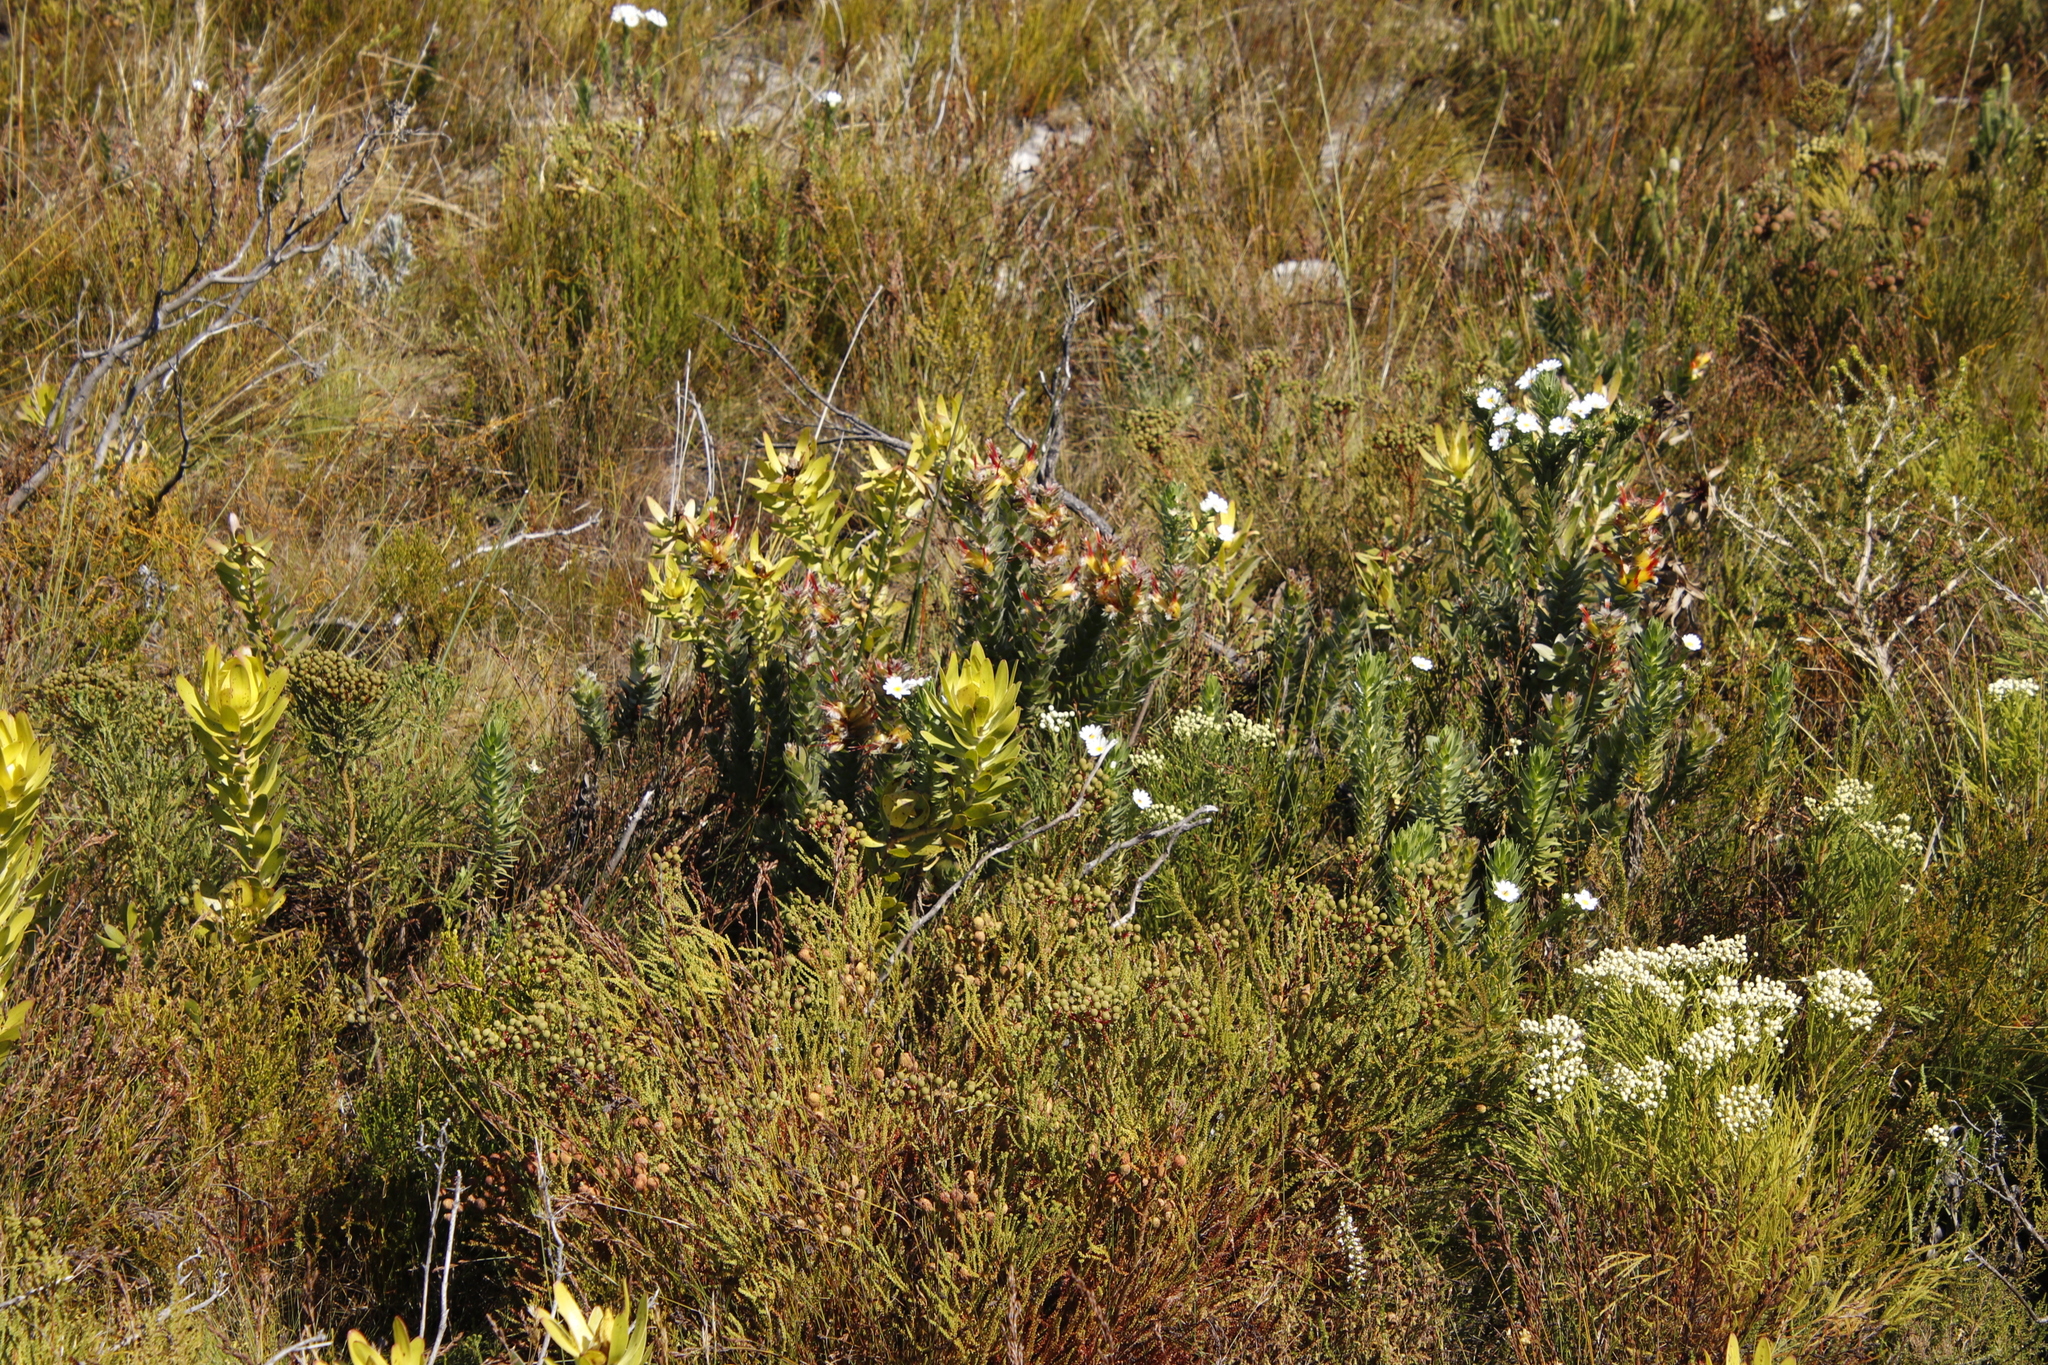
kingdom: Plantae
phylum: Tracheophyta
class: Magnoliopsida
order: Proteales
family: Proteaceae
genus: Mimetes
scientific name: Mimetes hirtus
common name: Marsh pagoda
